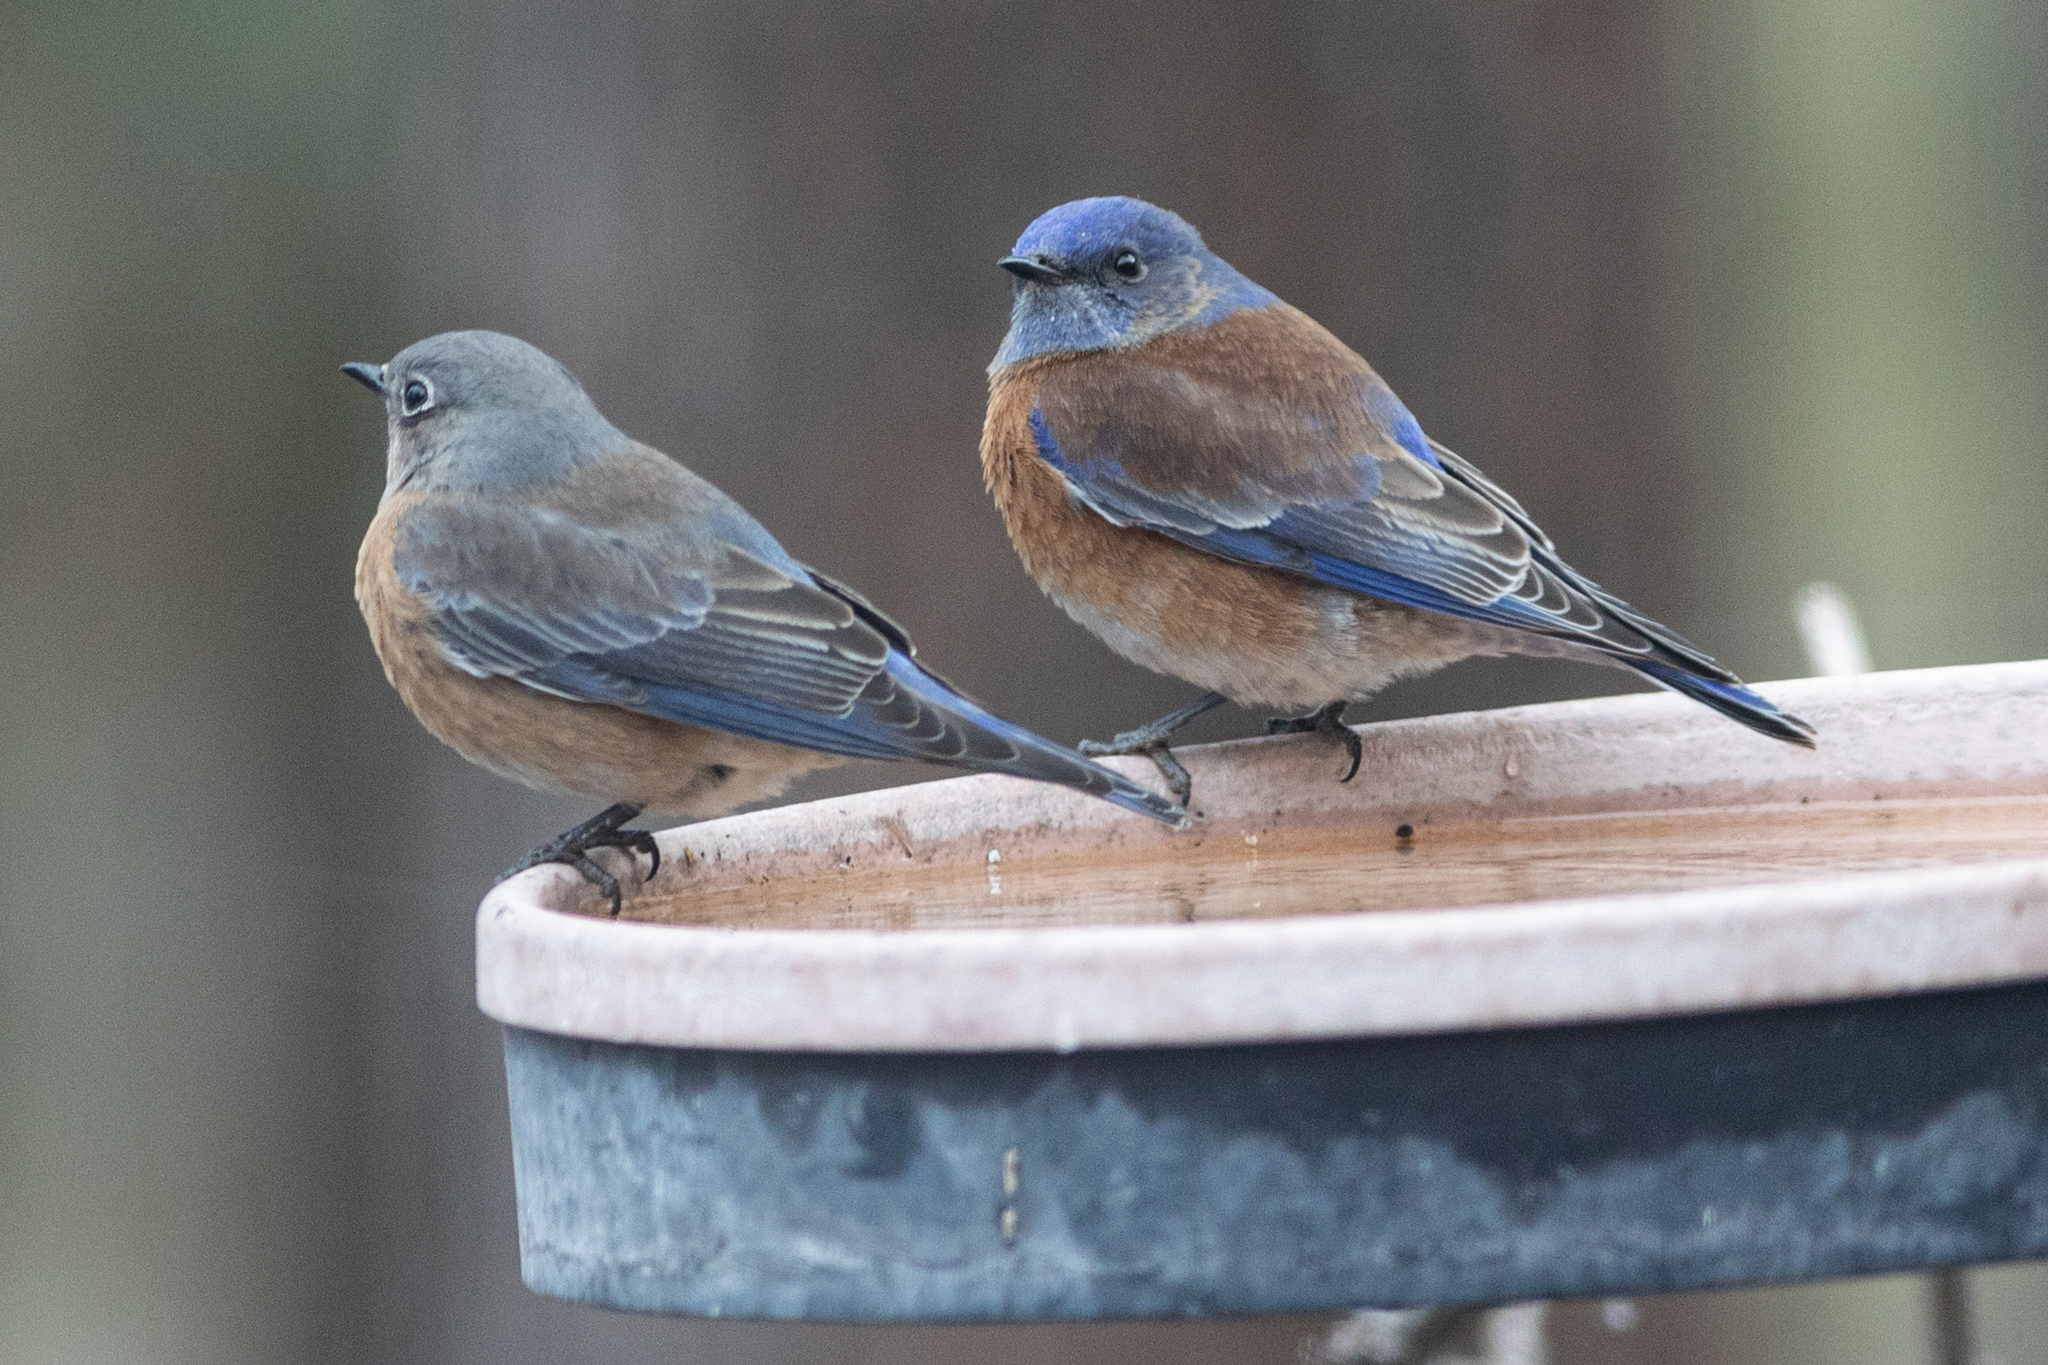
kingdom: Animalia
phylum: Chordata
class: Aves
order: Passeriformes
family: Turdidae
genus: Sialia
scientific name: Sialia mexicana
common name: Western bluebird
